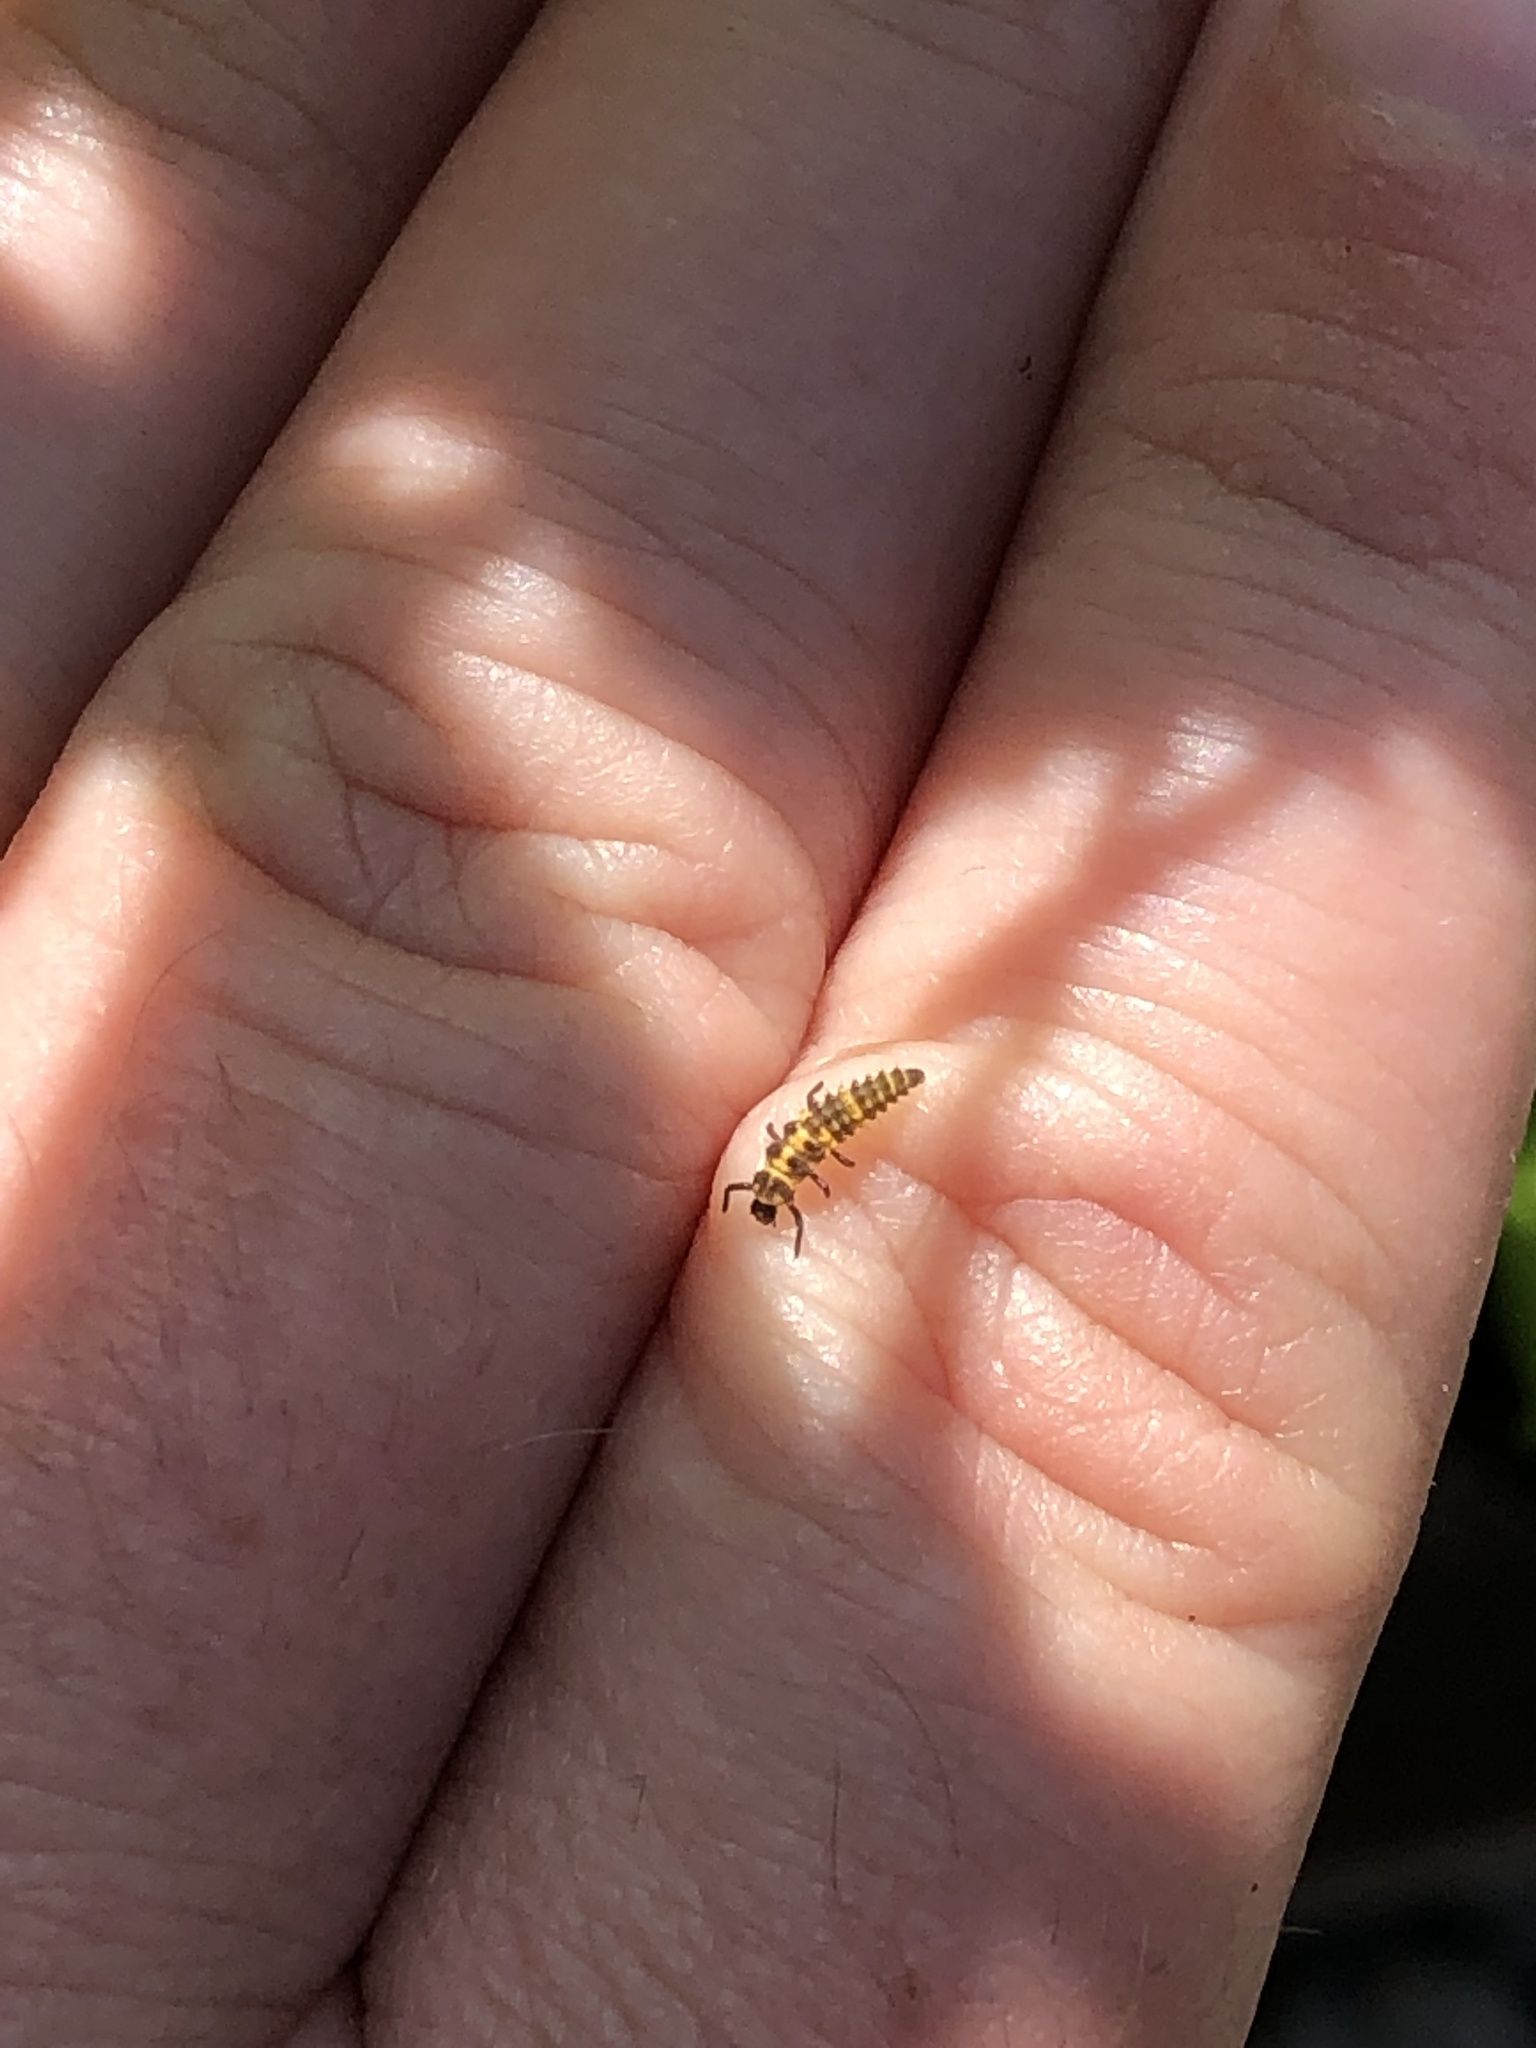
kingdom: Animalia
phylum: Arthropoda
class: Insecta
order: Coleoptera
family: Coccinellidae
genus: Coleomegilla
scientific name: Coleomegilla maculata
